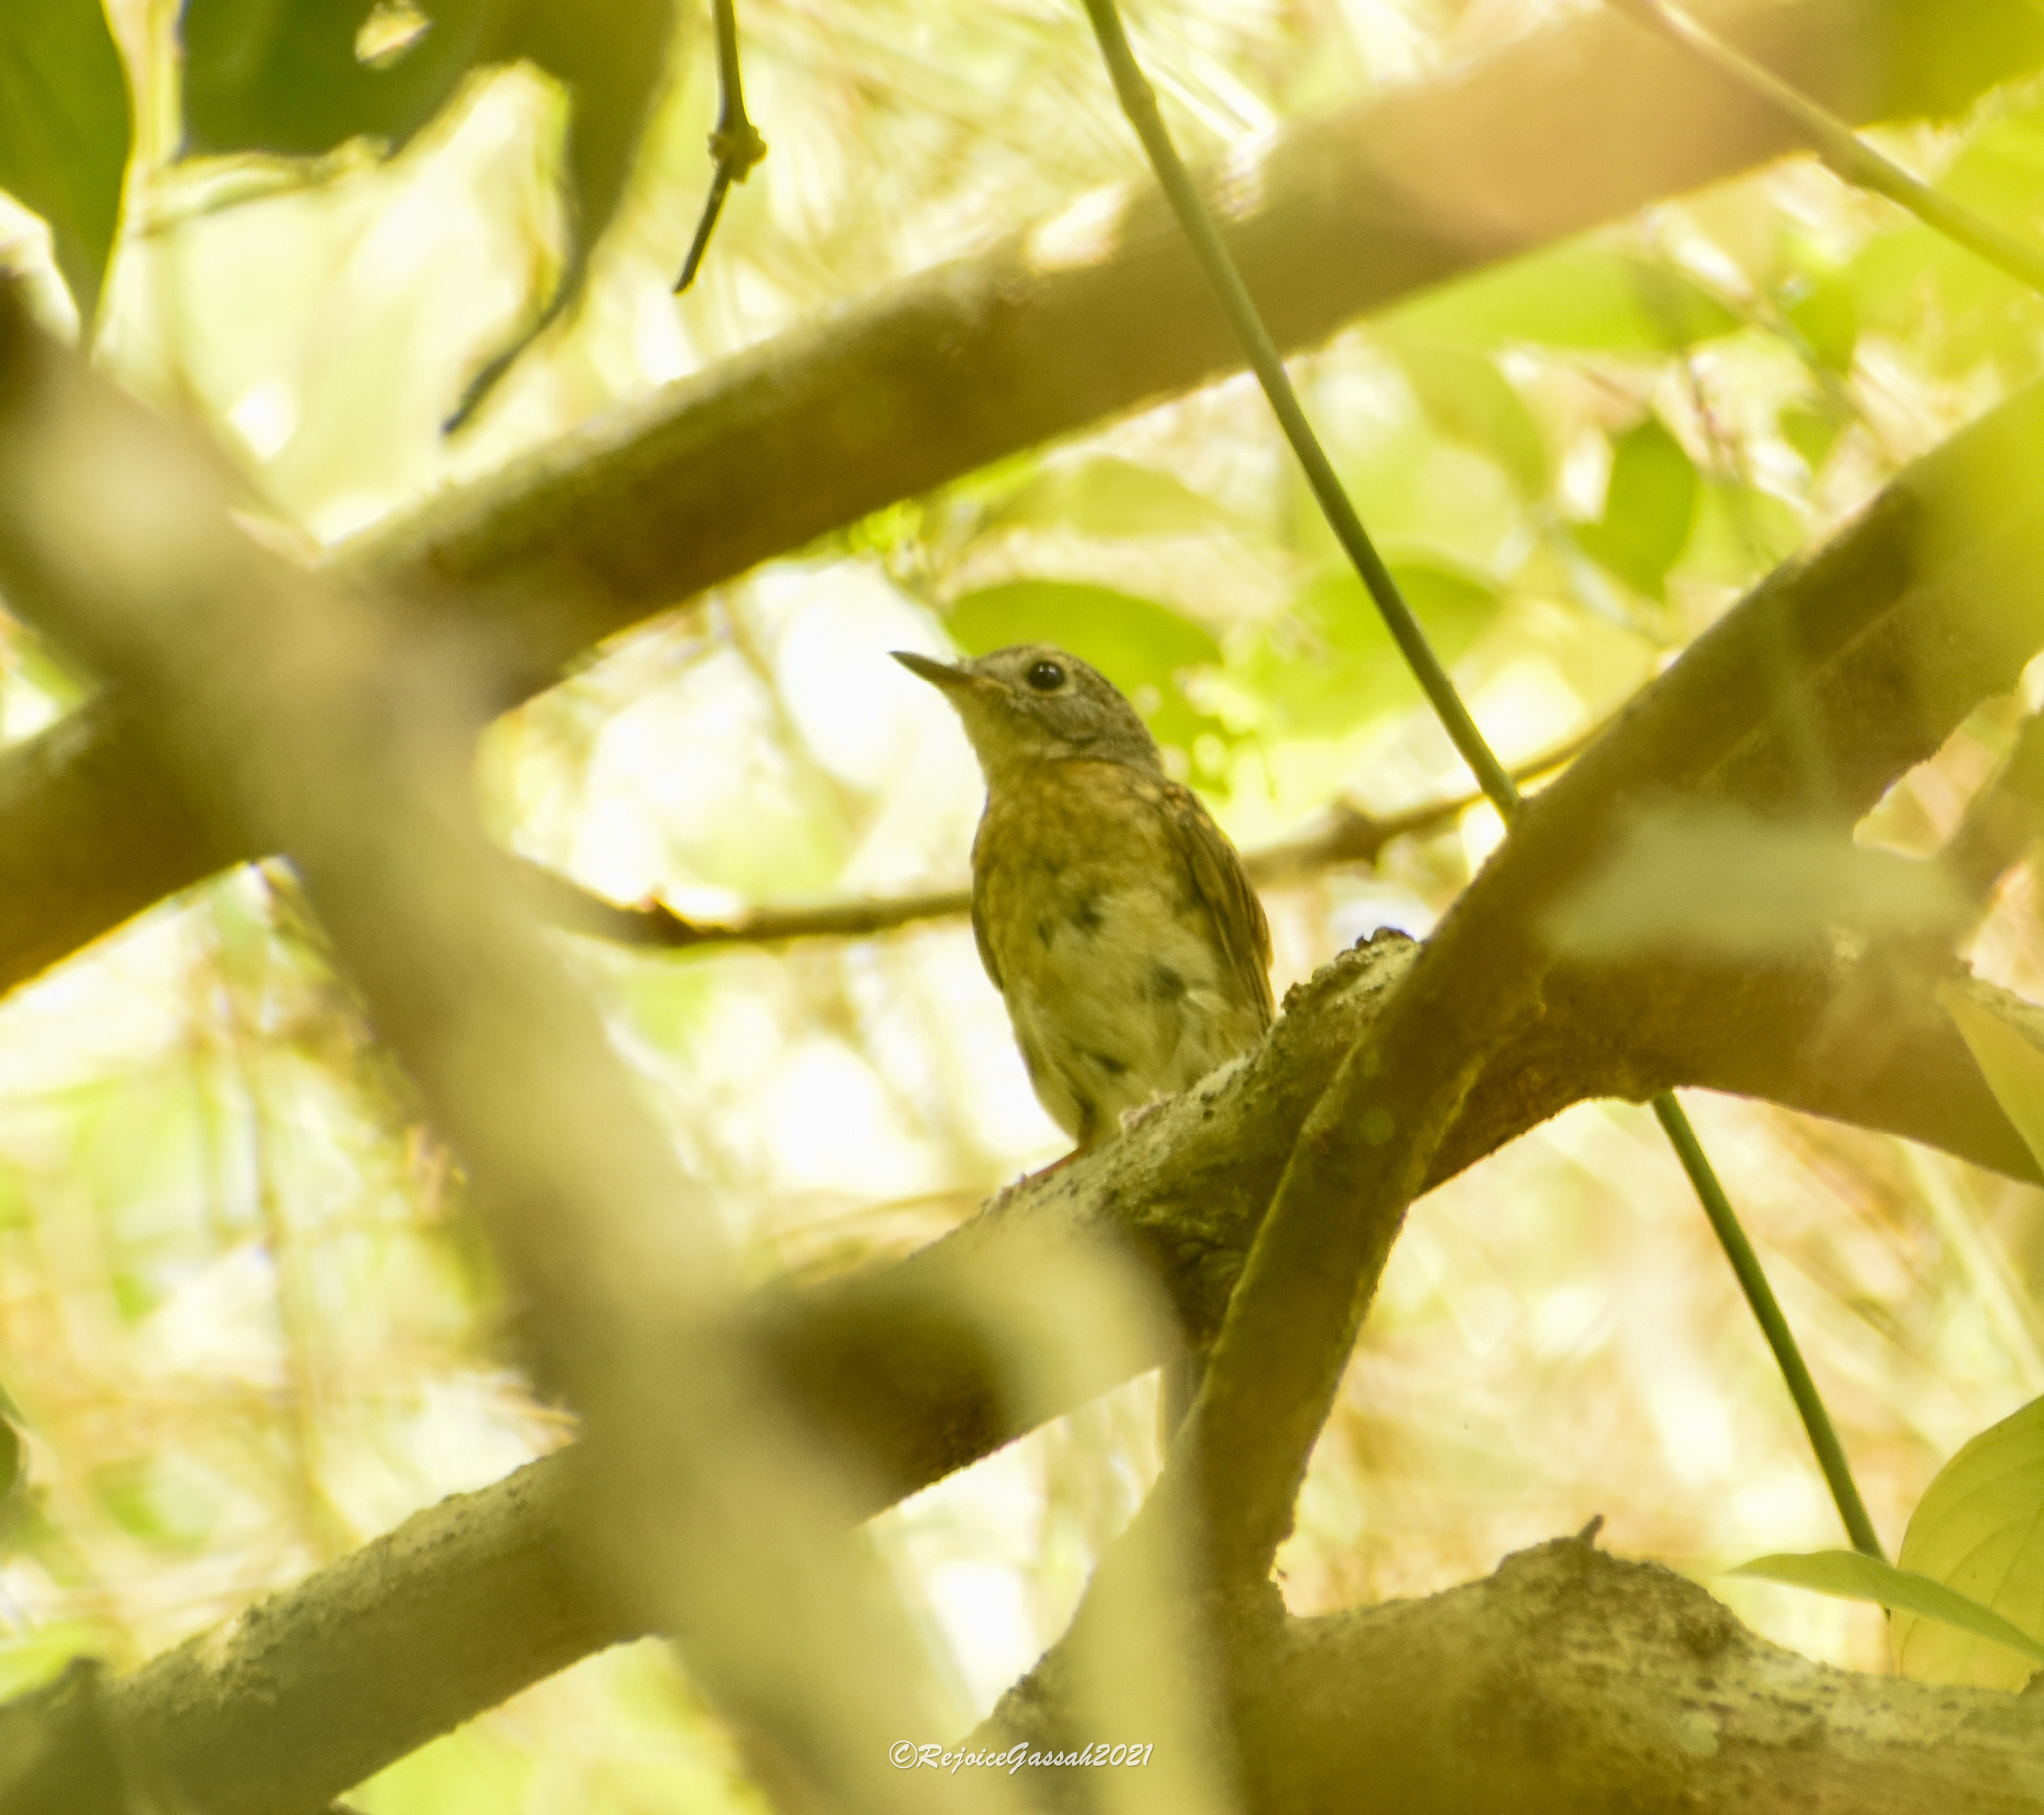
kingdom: Animalia
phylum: Chordata
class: Aves
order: Passeriformes
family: Muscicapidae
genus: Cyornis
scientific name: Cyornis poliogenys
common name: Pale-chinned blue flycatcher
